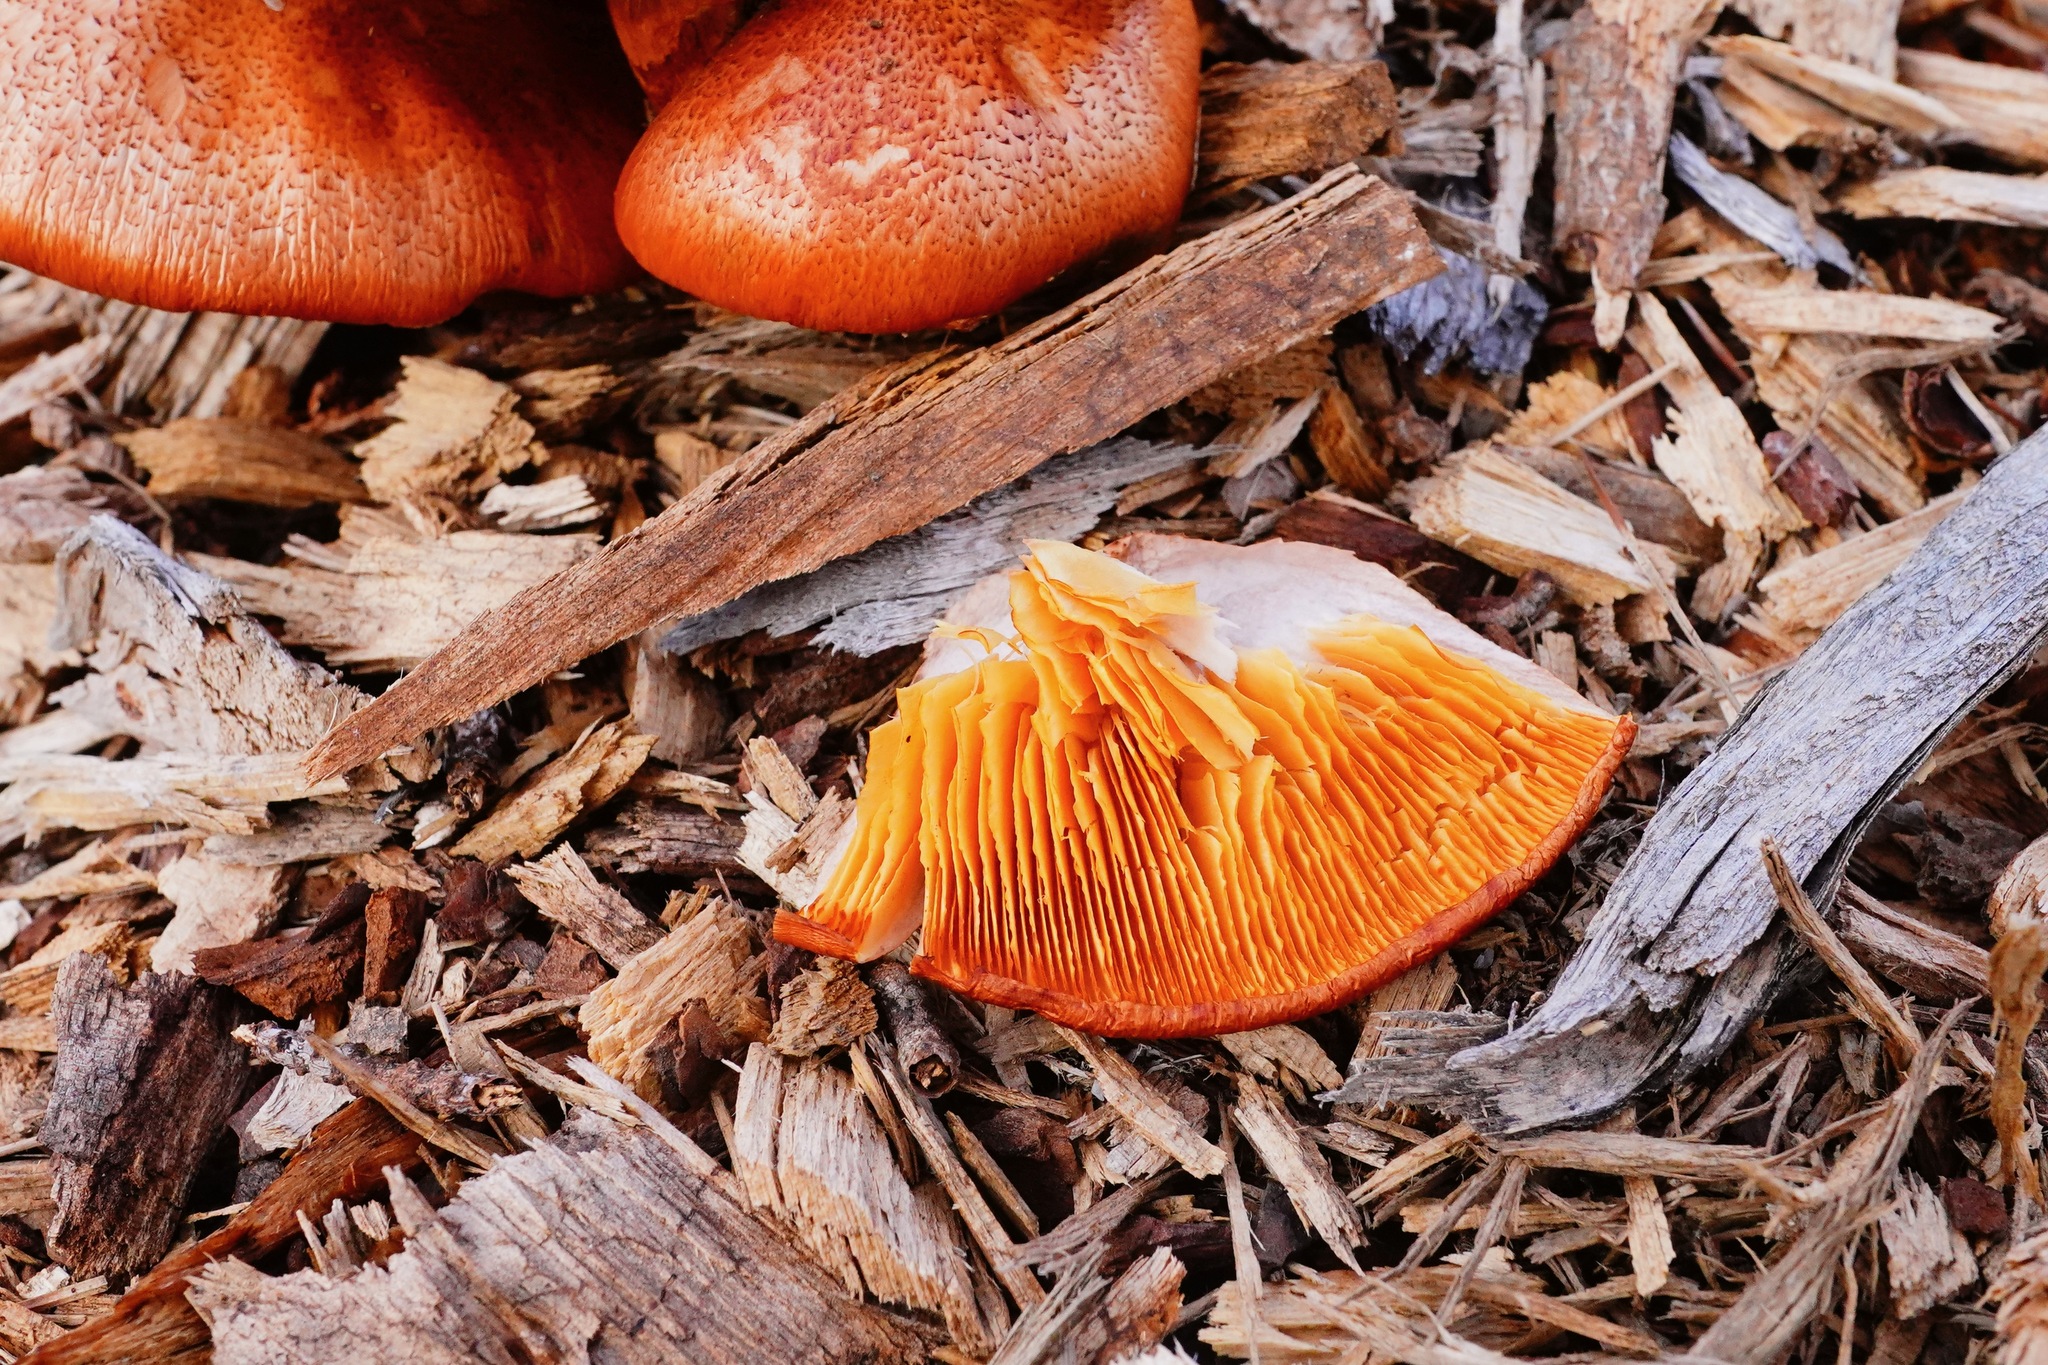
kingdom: Fungi
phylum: Basidiomycota
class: Agaricomycetes
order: Agaricales
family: Hymenogastraceae
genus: Gymnopilus
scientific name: Gymnopilus luteofolius
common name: Yellow-gilled gymnopilus
